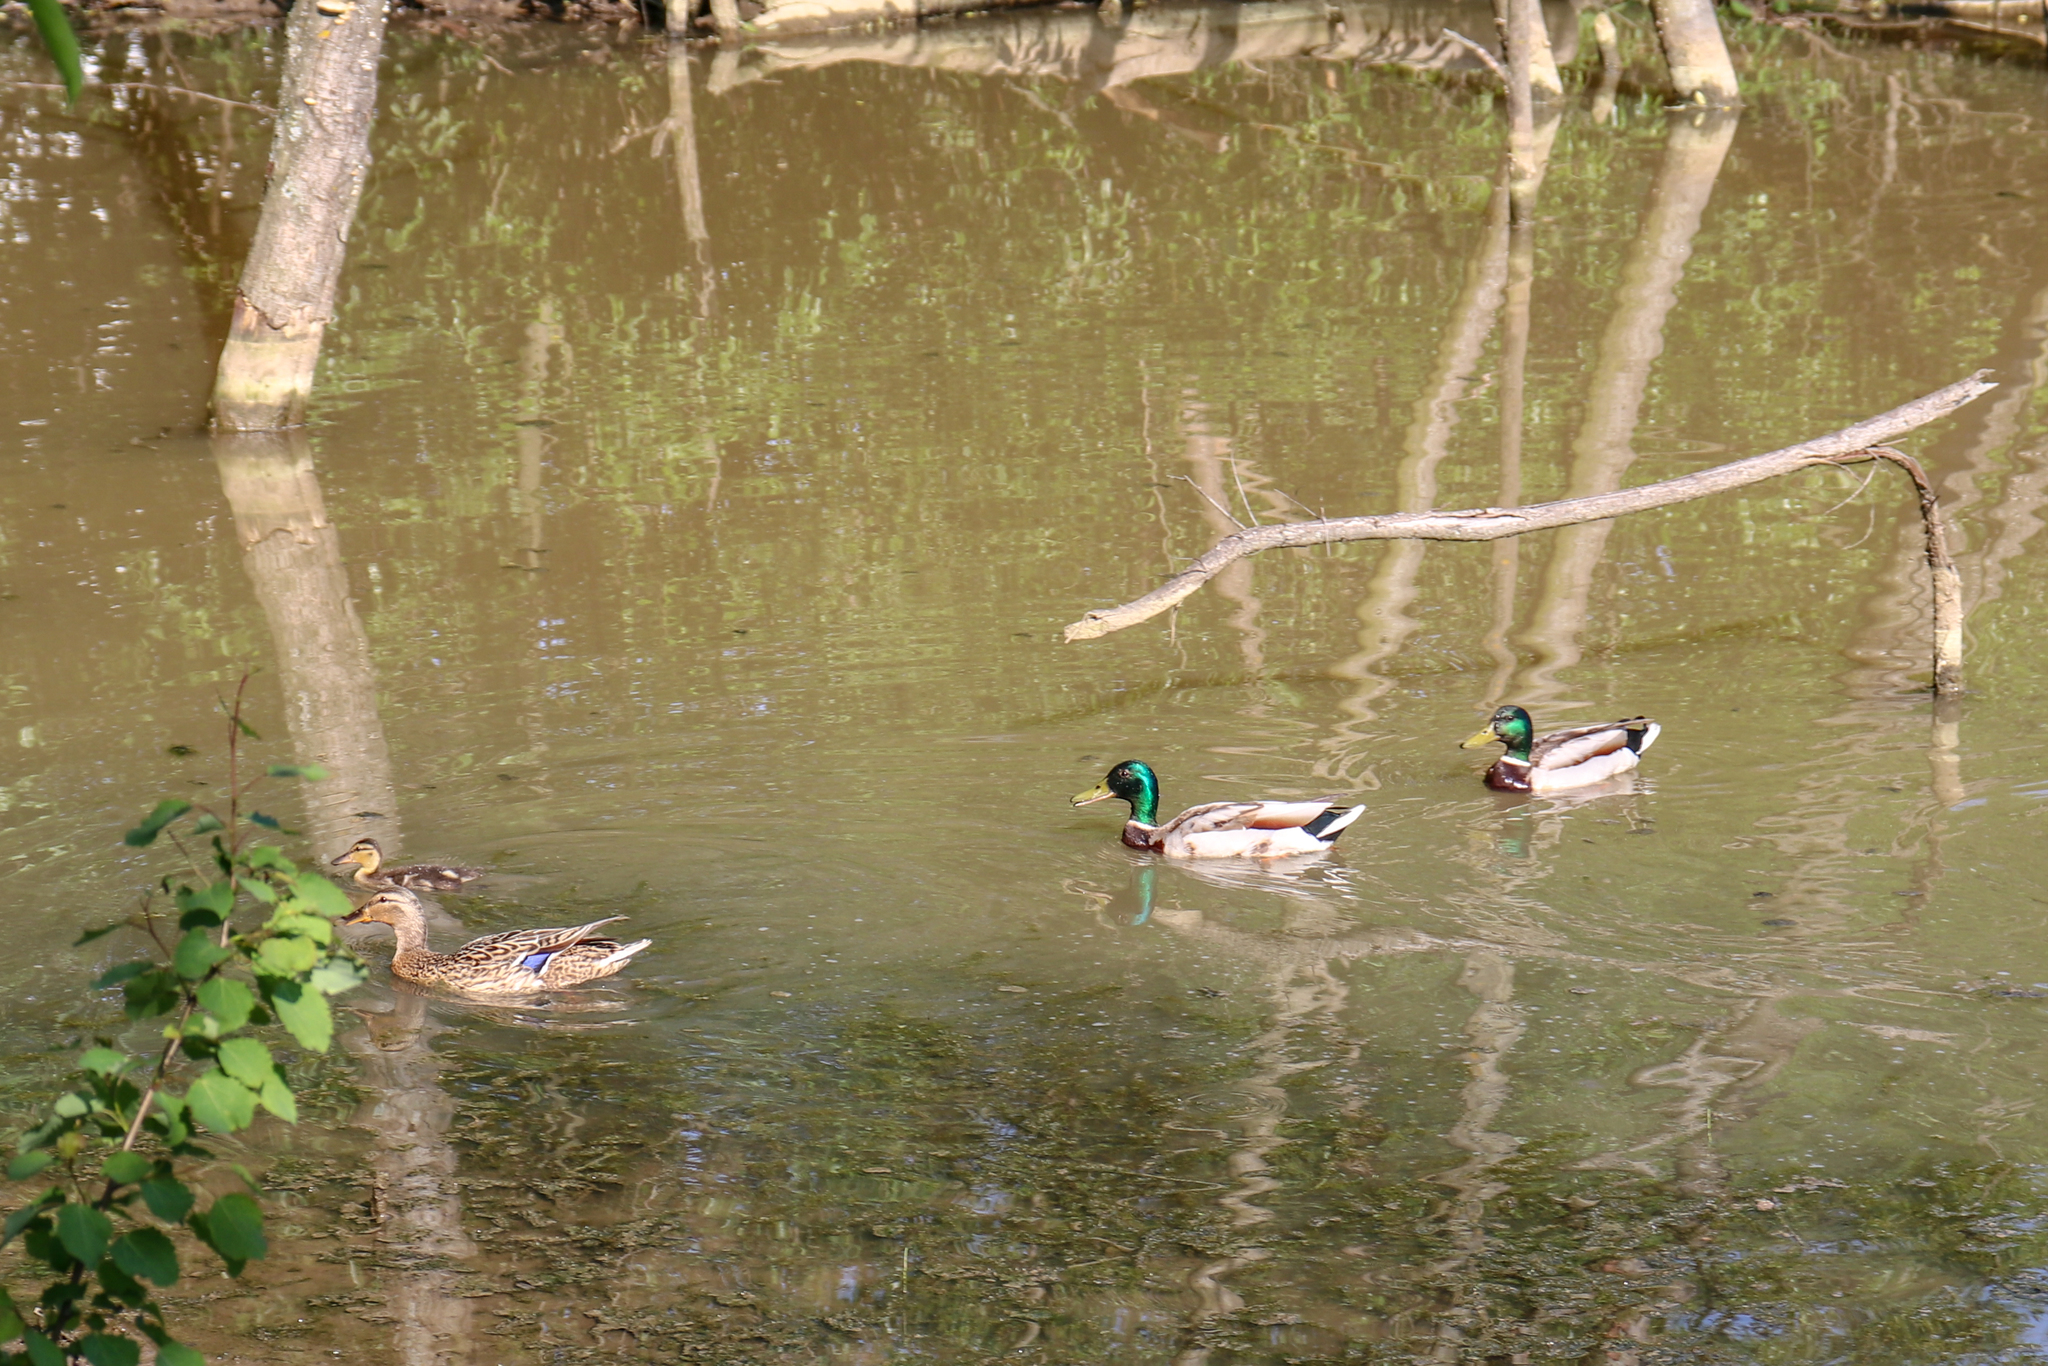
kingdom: Animalia
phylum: Chordata
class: Aves
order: Anseriformes
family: Anatidae
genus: Anas
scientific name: Anas platyrhynchos
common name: Mallard
